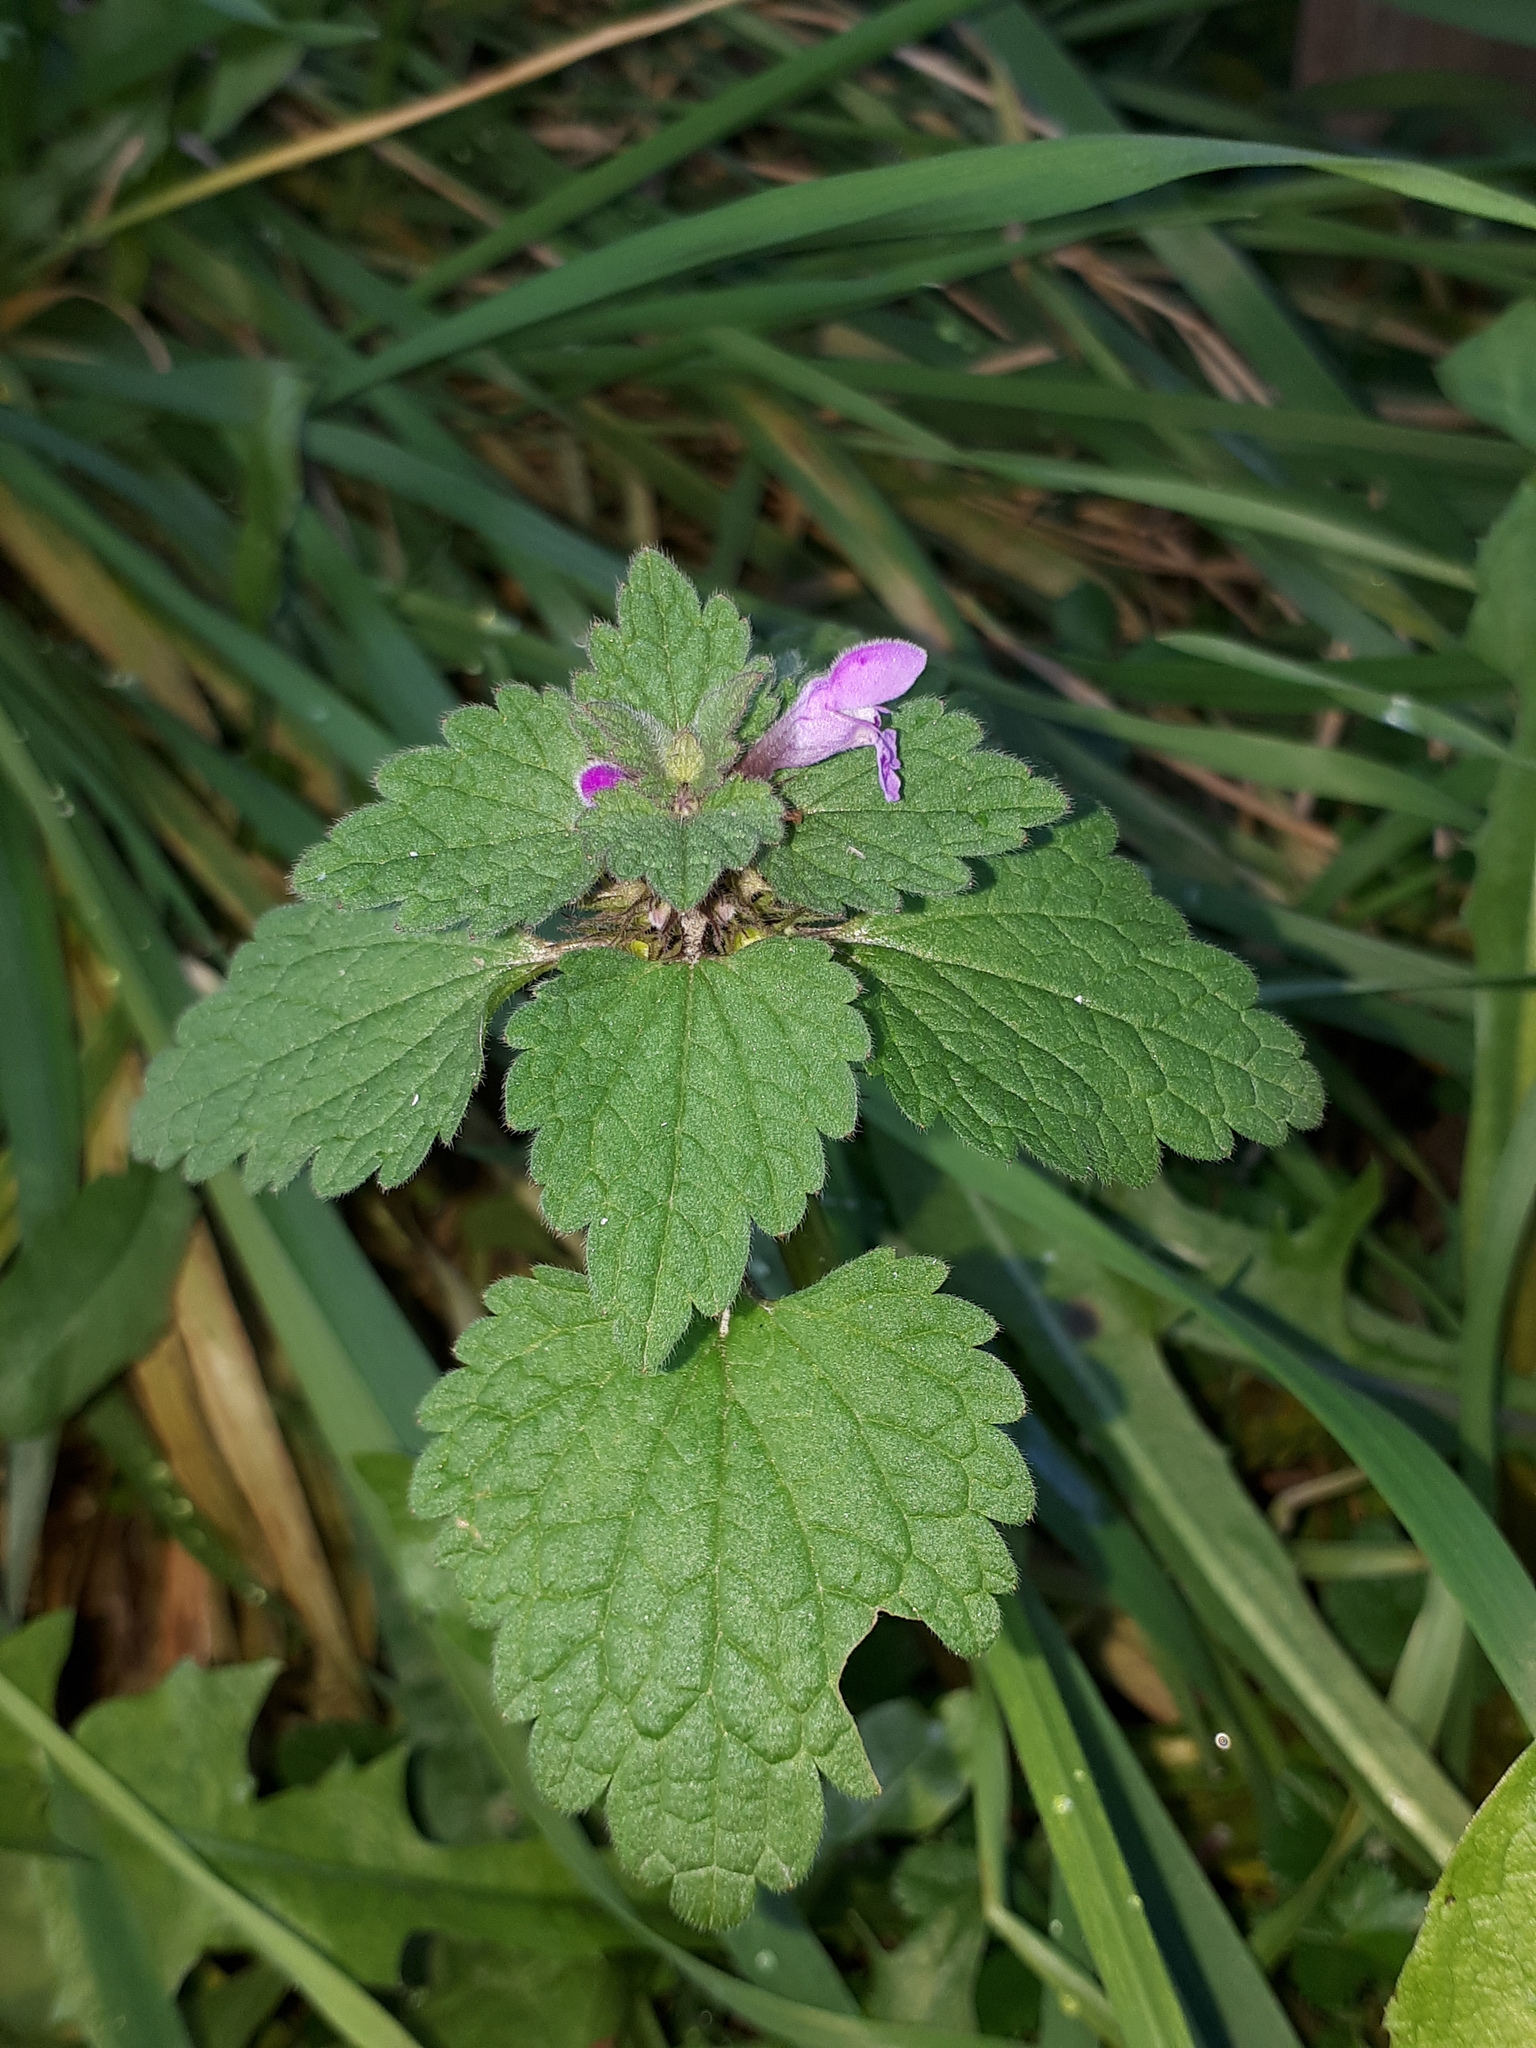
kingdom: Plantae
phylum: Tracheophyta
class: Magnoliopsida
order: Lamiales
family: Lamiaceae
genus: Lamium
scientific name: Lamium purpureum
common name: Red dead-nettle
